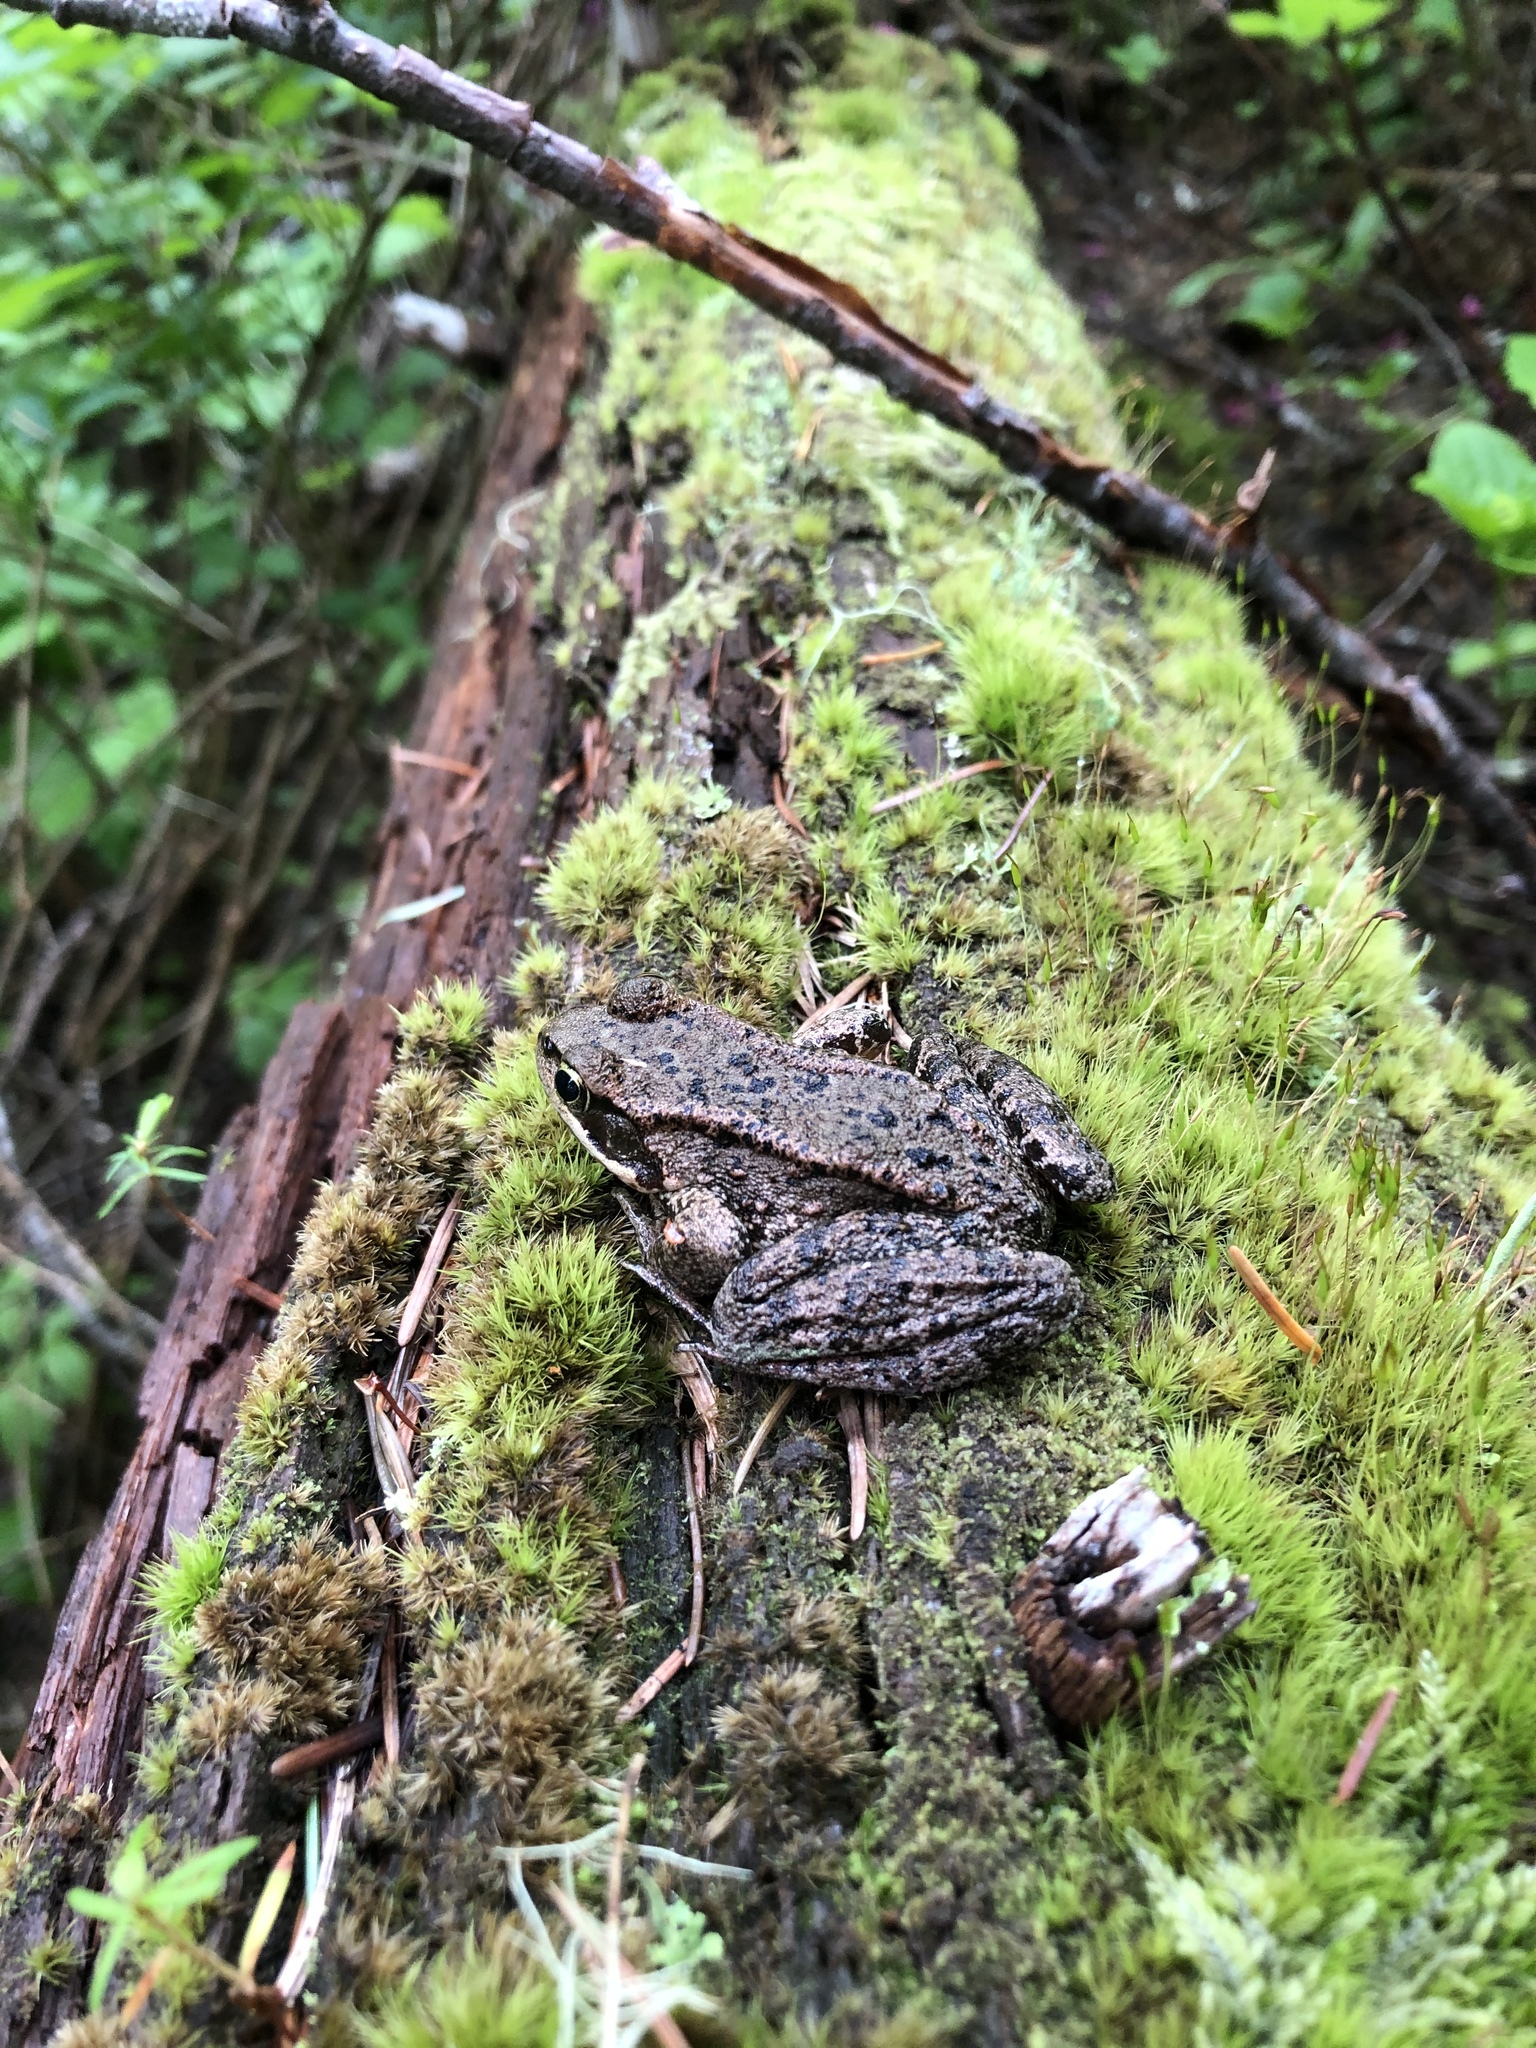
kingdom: Animalia
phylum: Chordata
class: Amphibia
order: Anura
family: Ranidae
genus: Rana
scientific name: Rana cascadae
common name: Cascades frog
